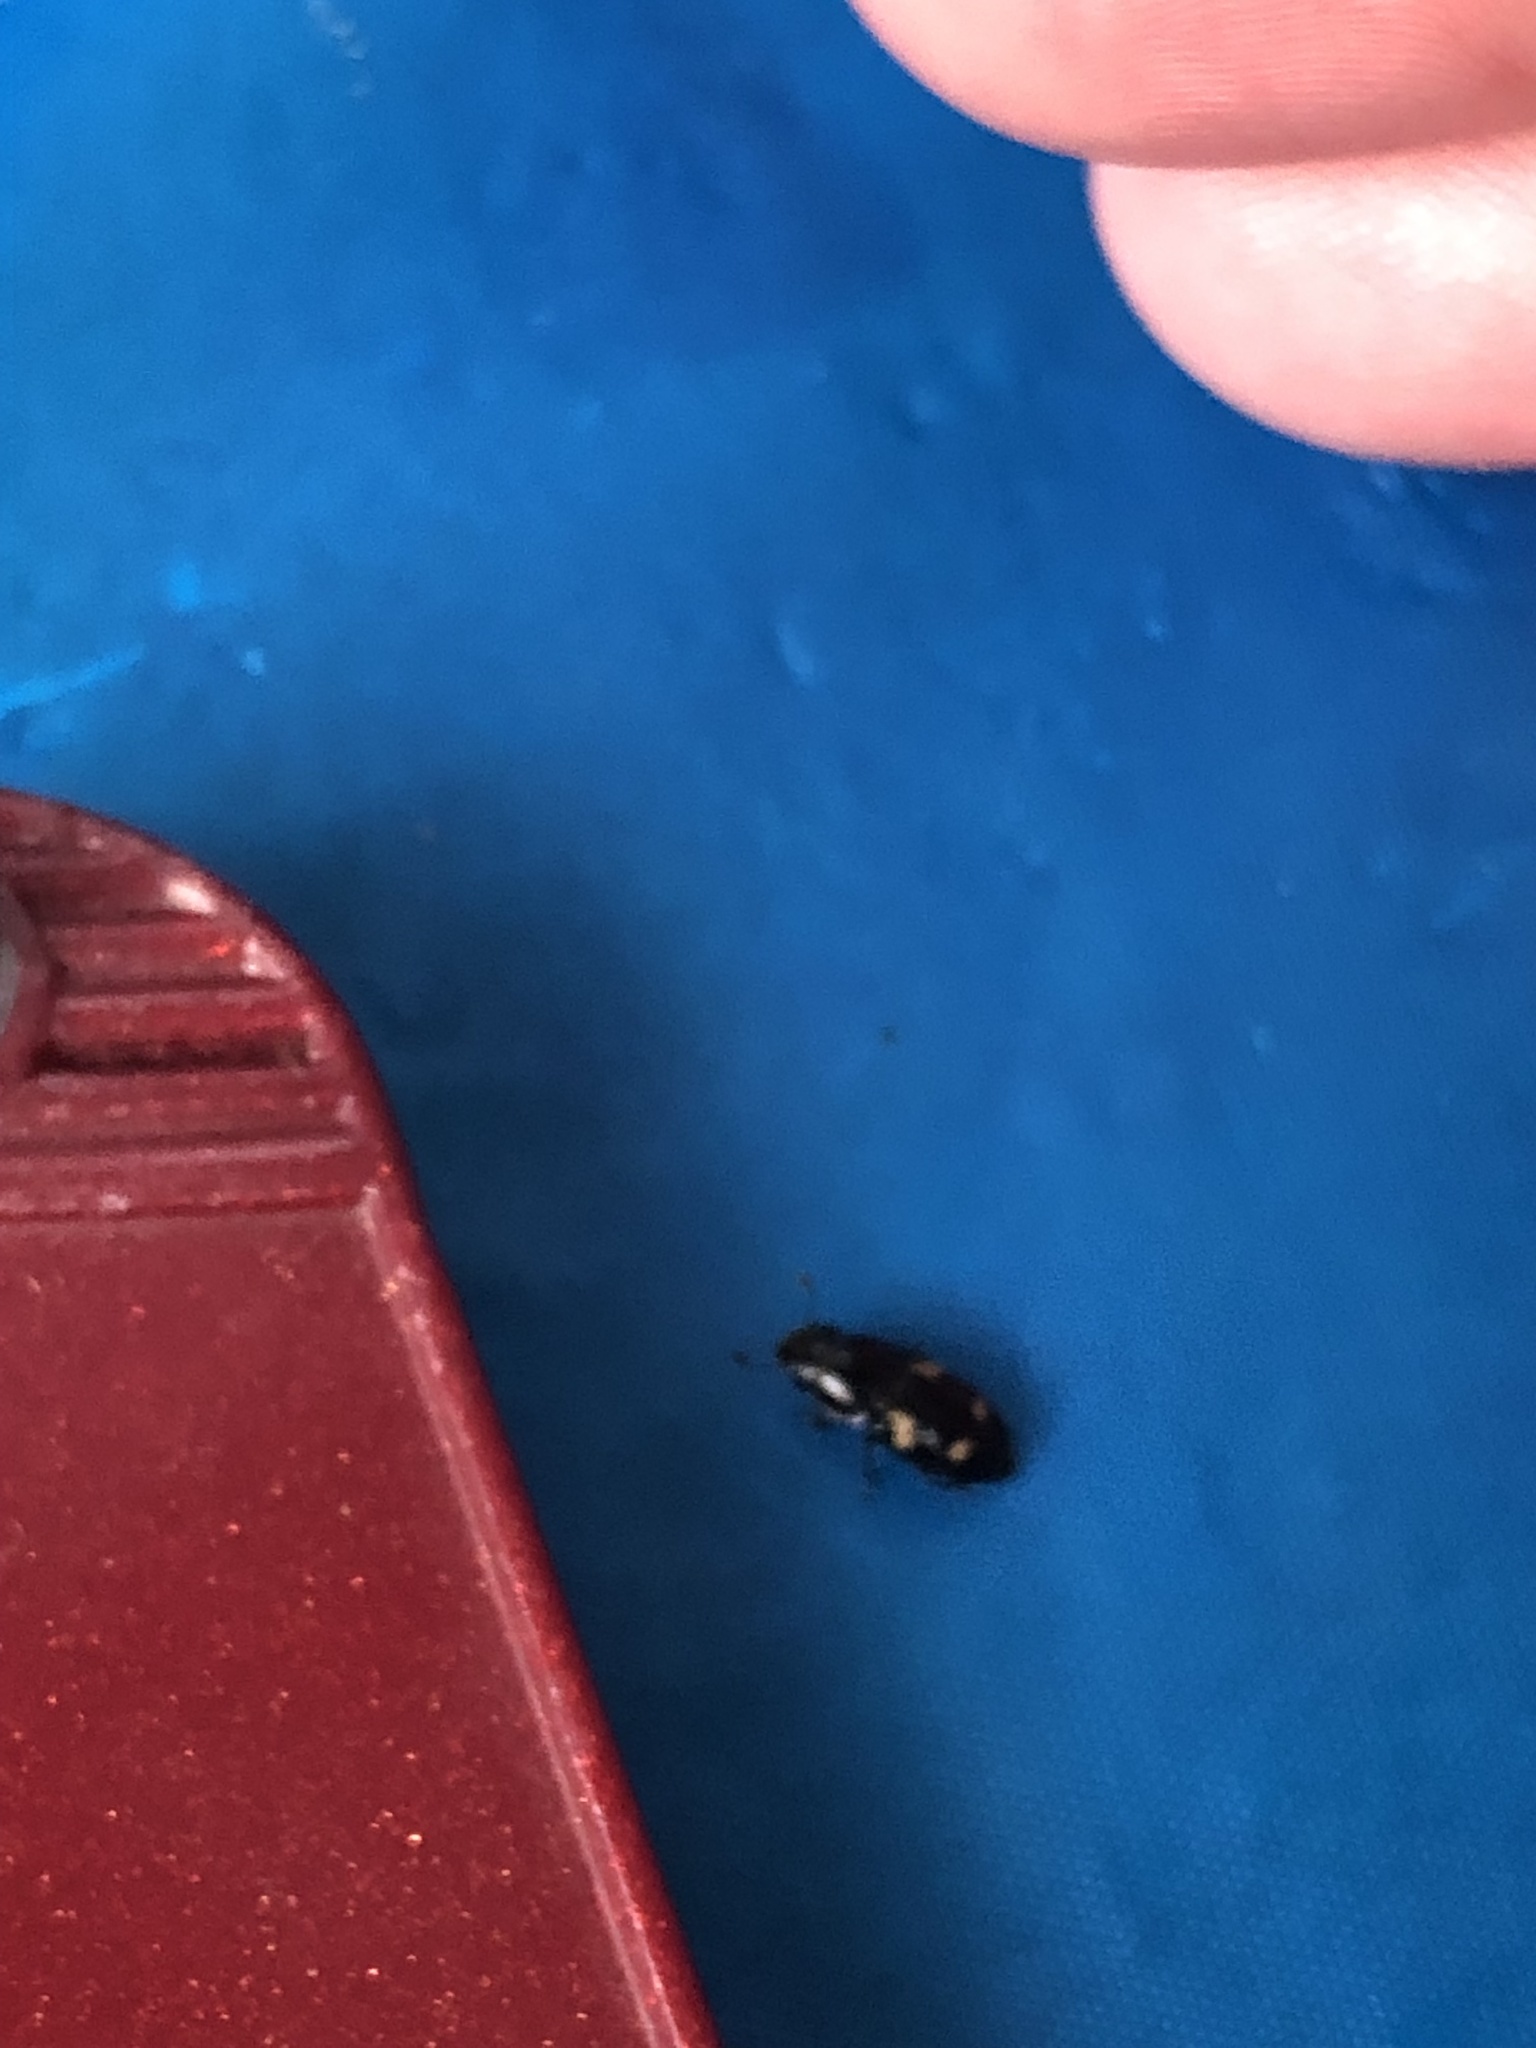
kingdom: Animalia
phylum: Arthropoda
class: Insecta
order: Coleoptera
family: Nitidulidae
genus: Glischrochilus
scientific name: Glischrochilus quadrisignatus
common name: Picnic beetle
